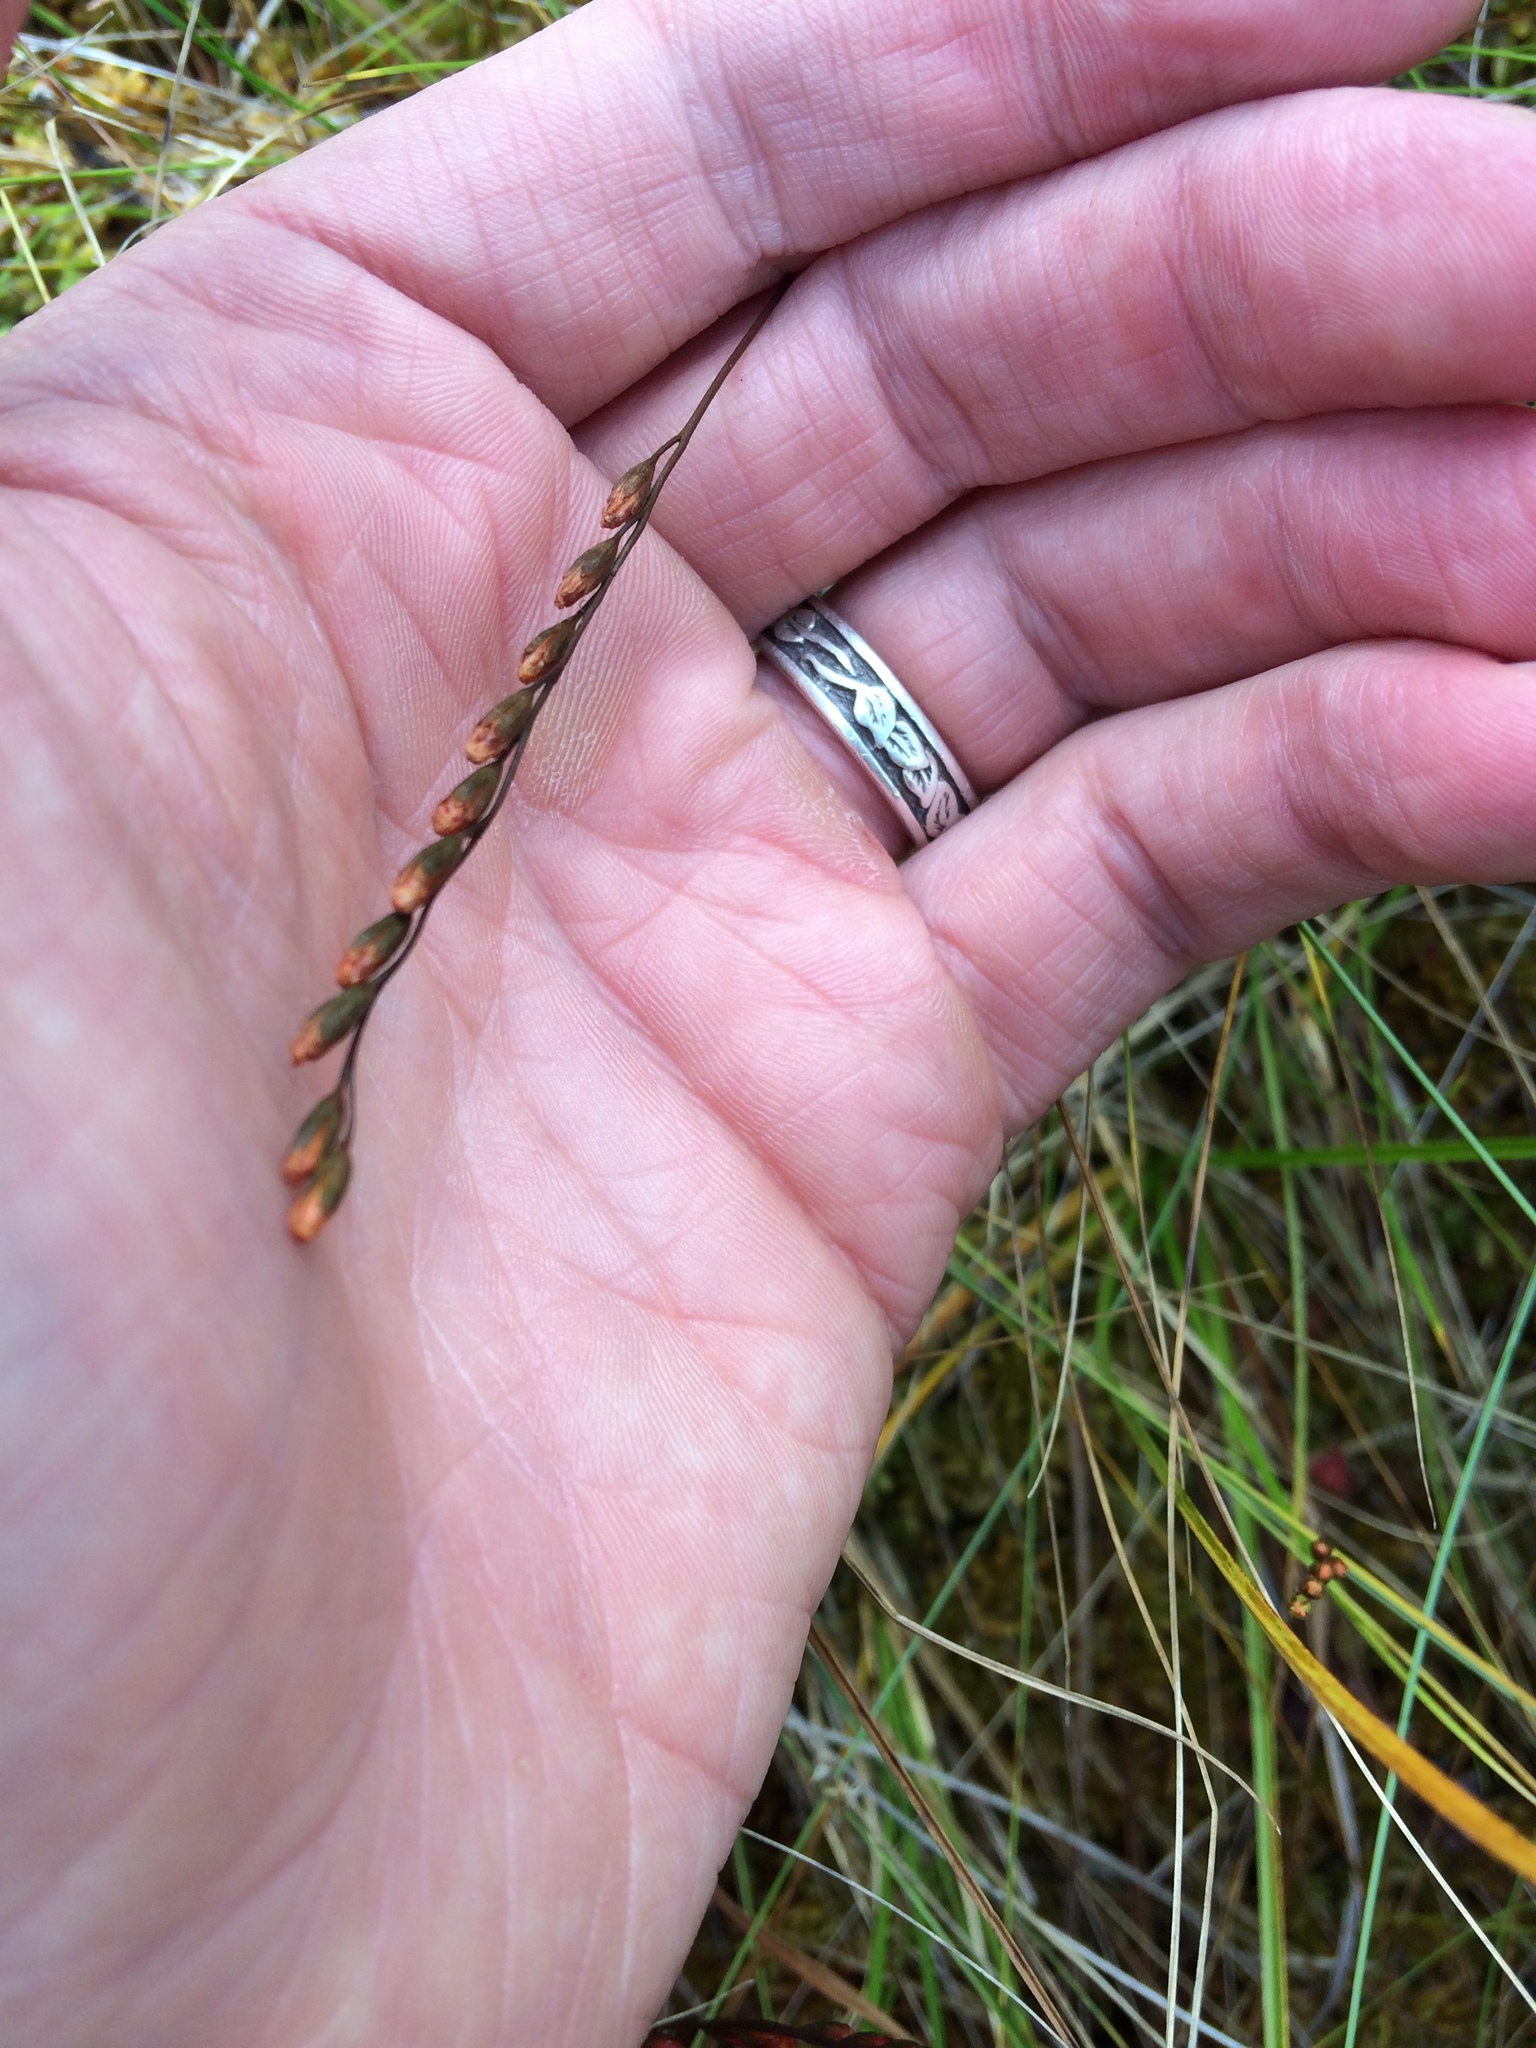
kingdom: Plantae
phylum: Tracheophyta
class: Magnoliopsida
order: Caryophyllales
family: Droseraceae
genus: Drosera
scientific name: Drosera rotundifolia
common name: Round-leaved sundew
